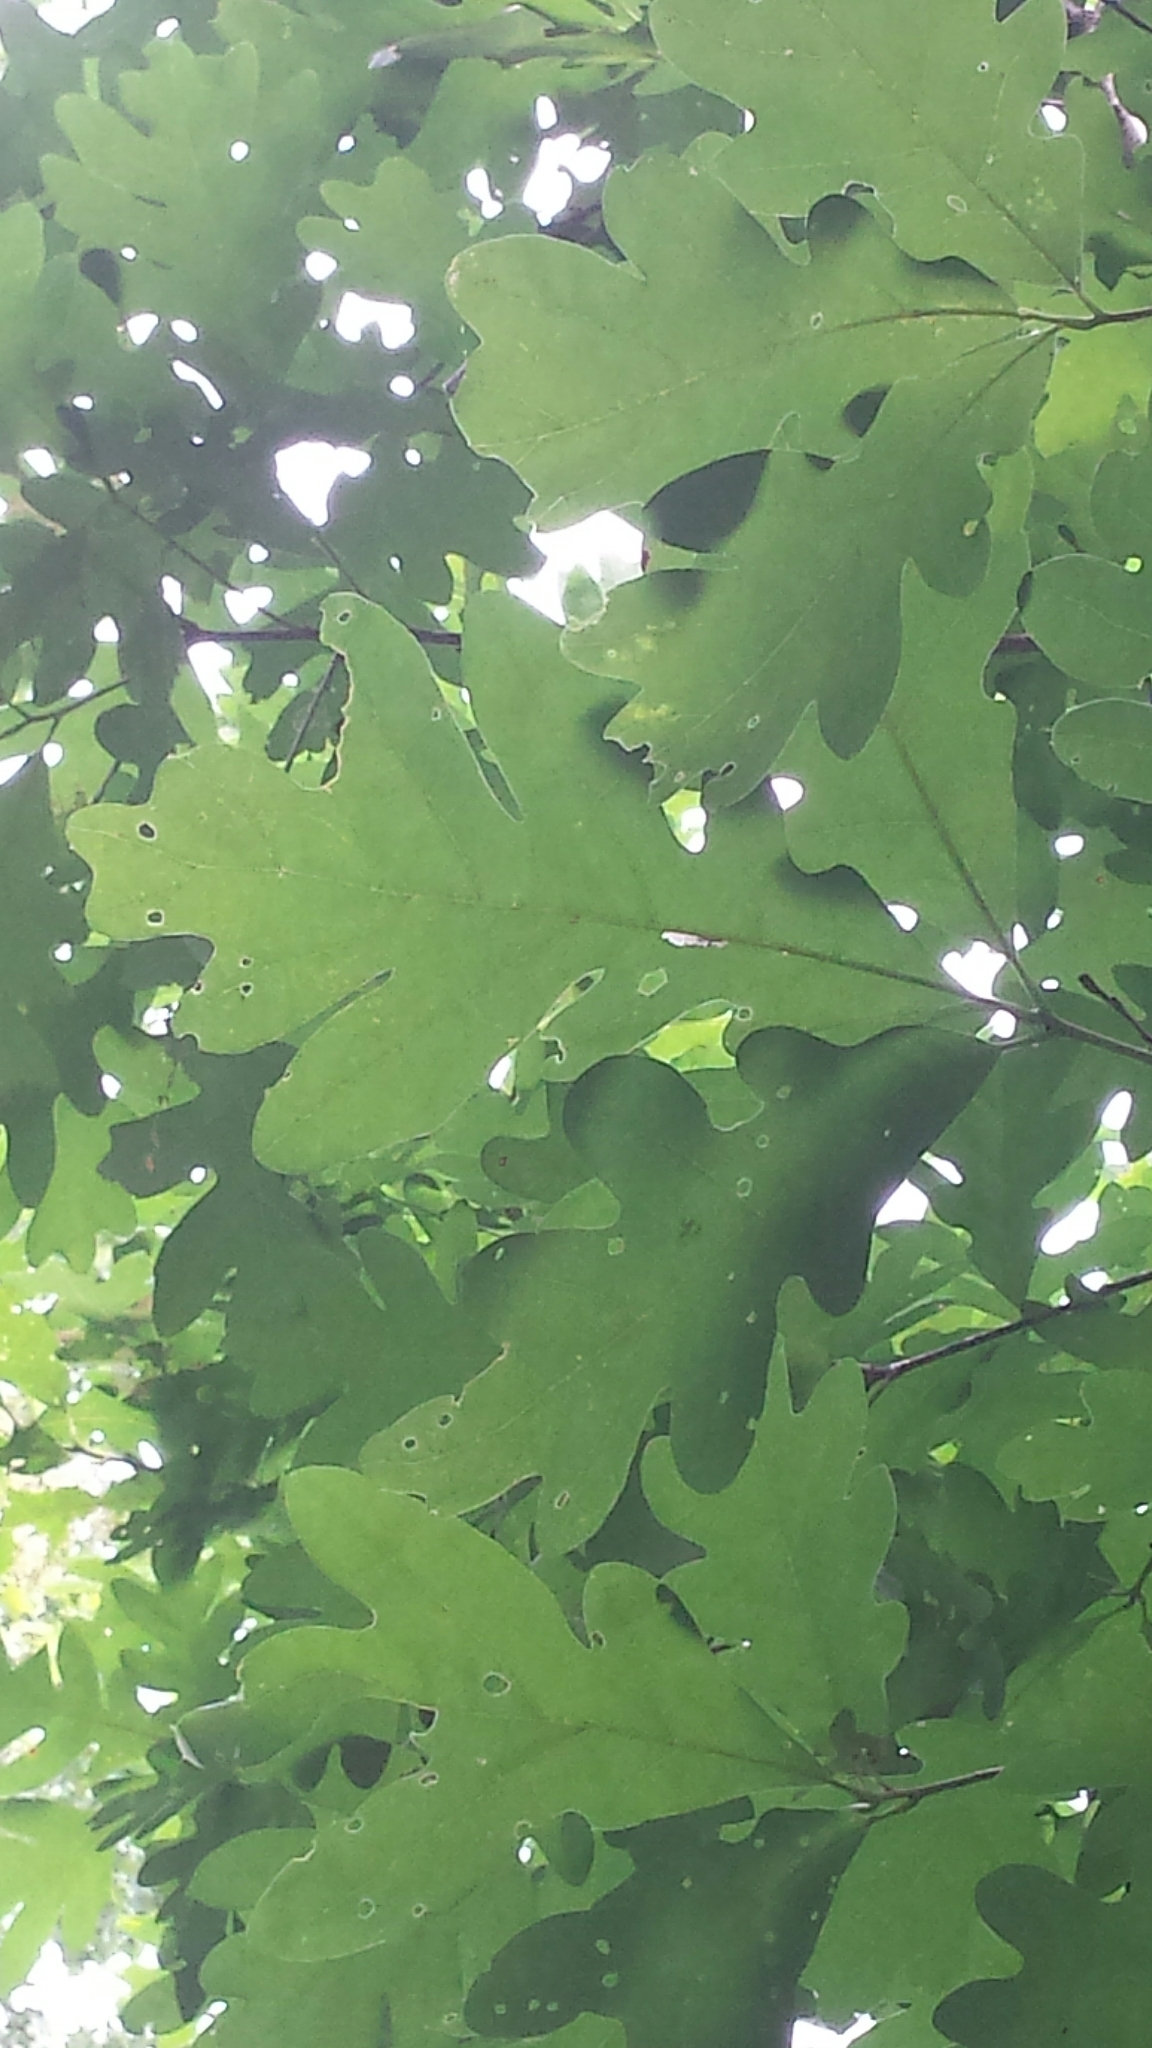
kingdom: Plantae
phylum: Tracheophyta
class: Magnoliopsida
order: Fagales
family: Fagaceae
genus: Quercus
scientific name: Quercus alba
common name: White oak
